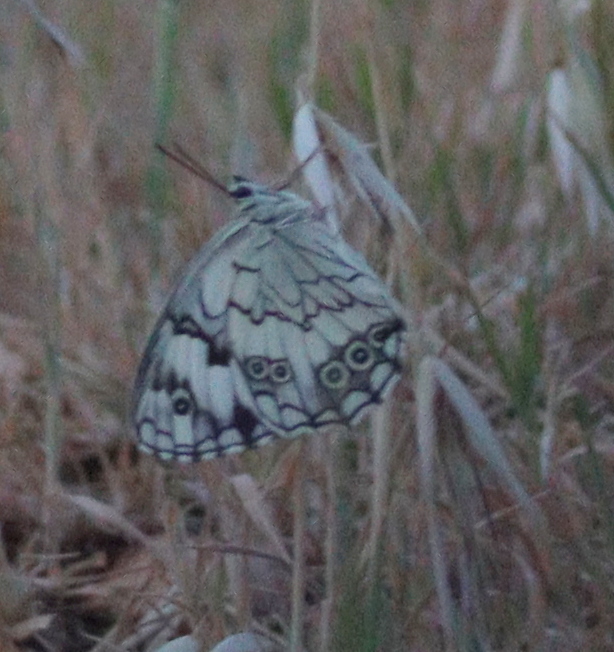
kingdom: Animalia
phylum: Arthropoda
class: Insecta
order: Lepidoptera
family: Nymphalidae
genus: Melanargia
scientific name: Melanargia titea
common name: Levantine marbled white
